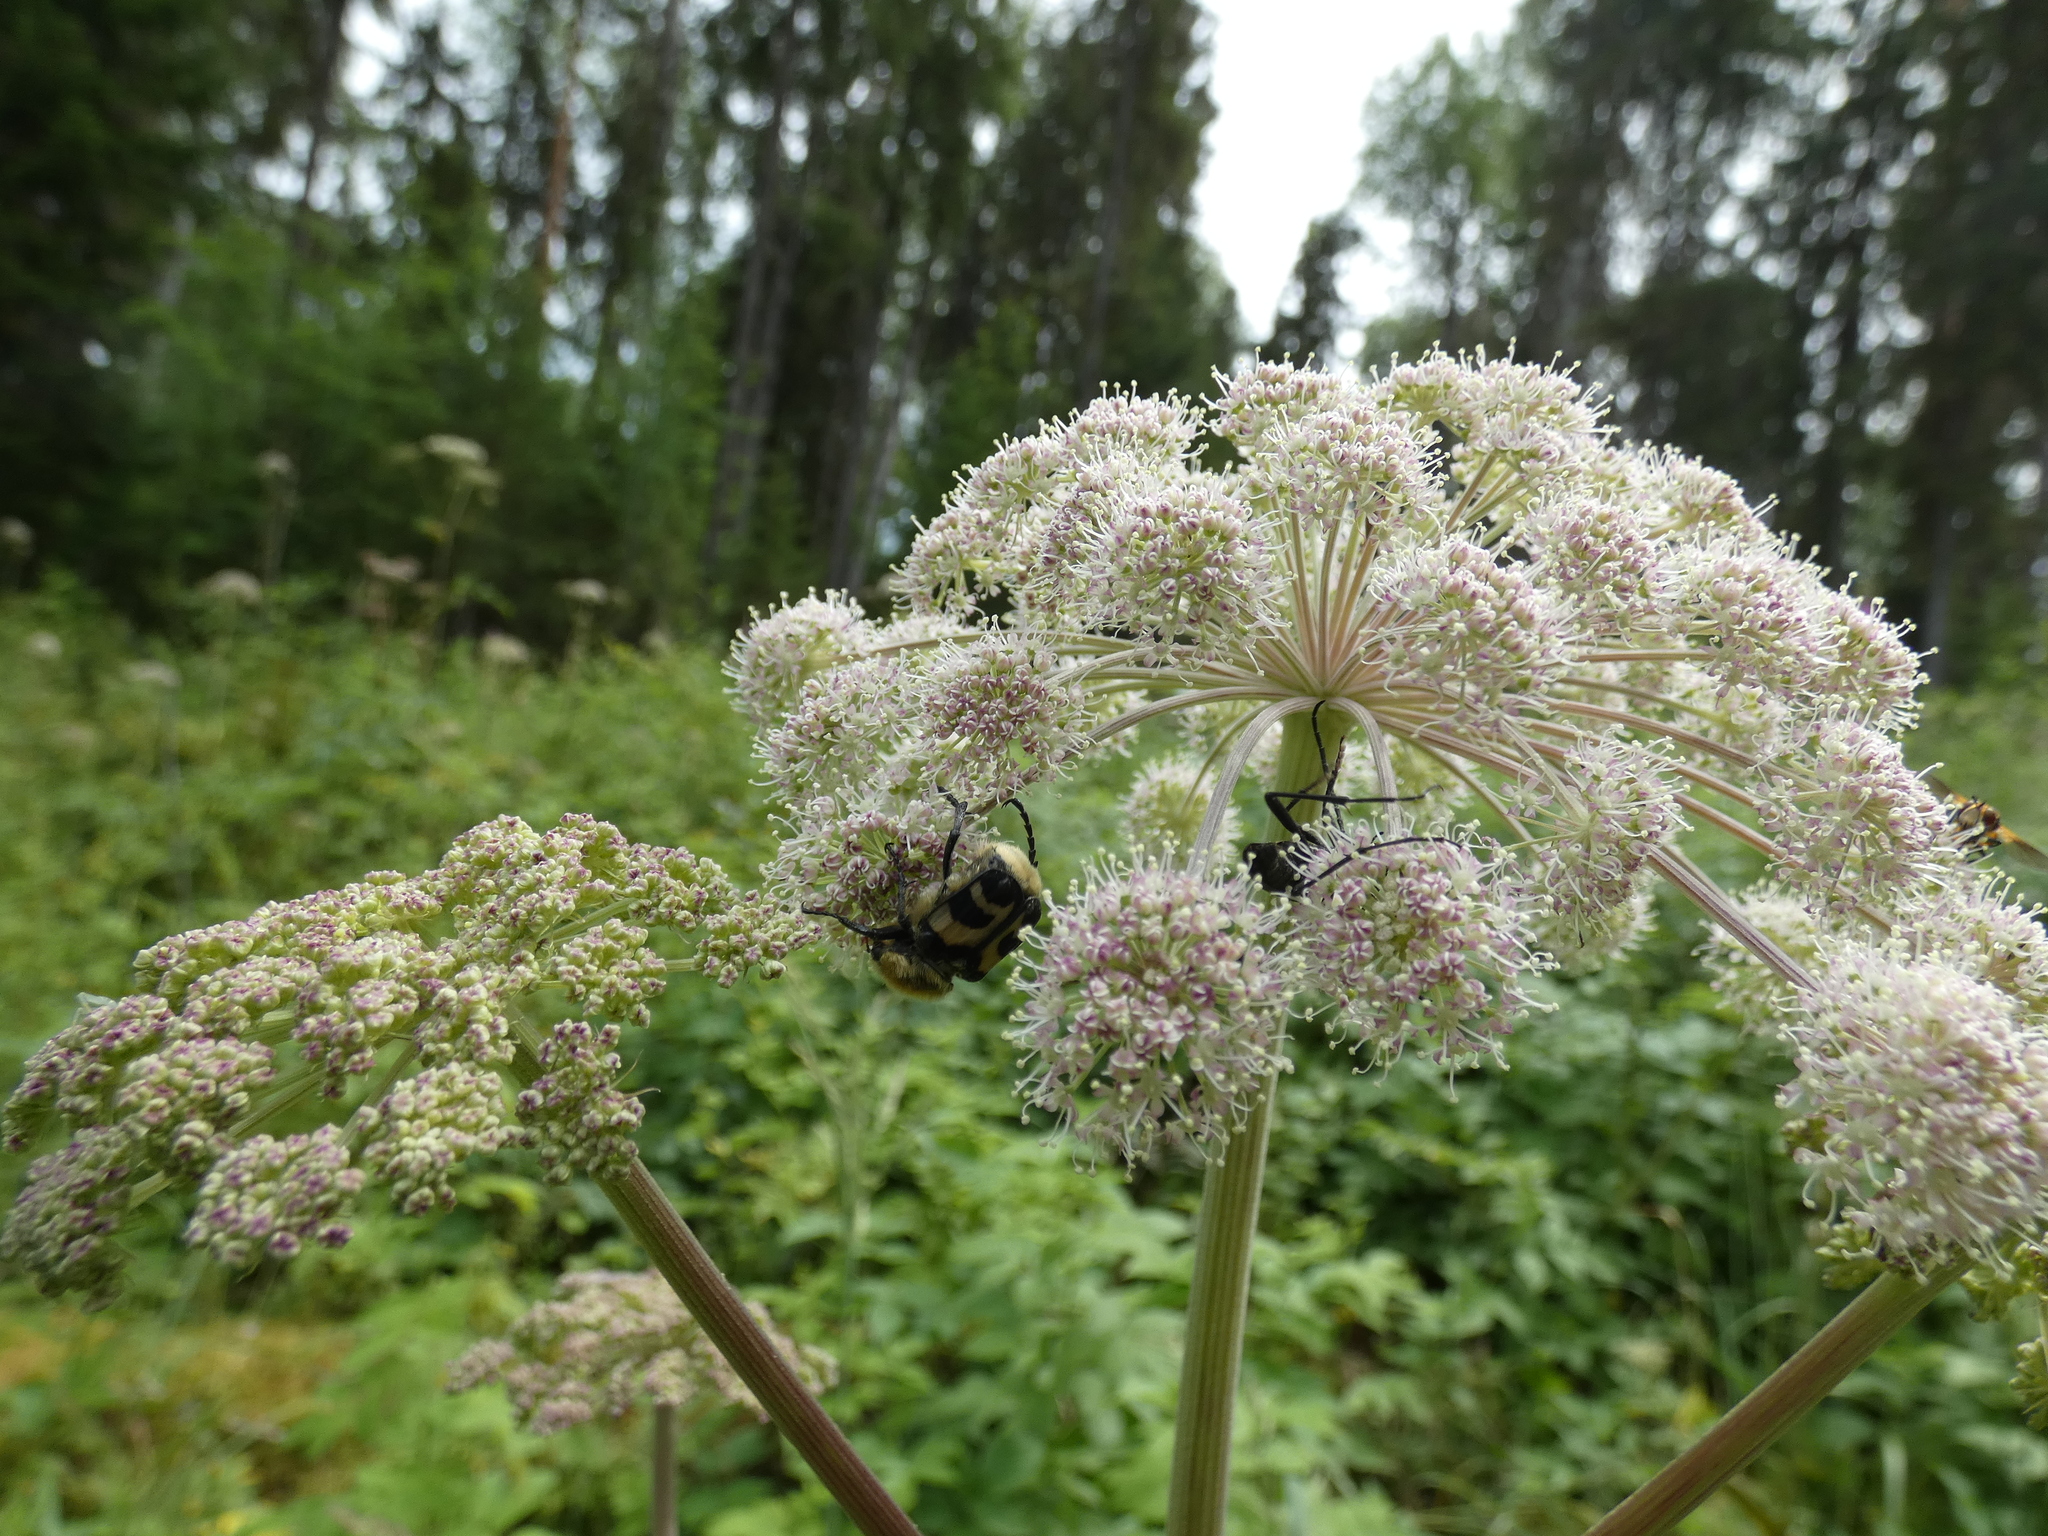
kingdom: Animalia
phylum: Arthropoda
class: Insecta
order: Coleoptera
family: Scarabaeidae
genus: Trichius
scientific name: Trichius fasciatus
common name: Bee beetle
